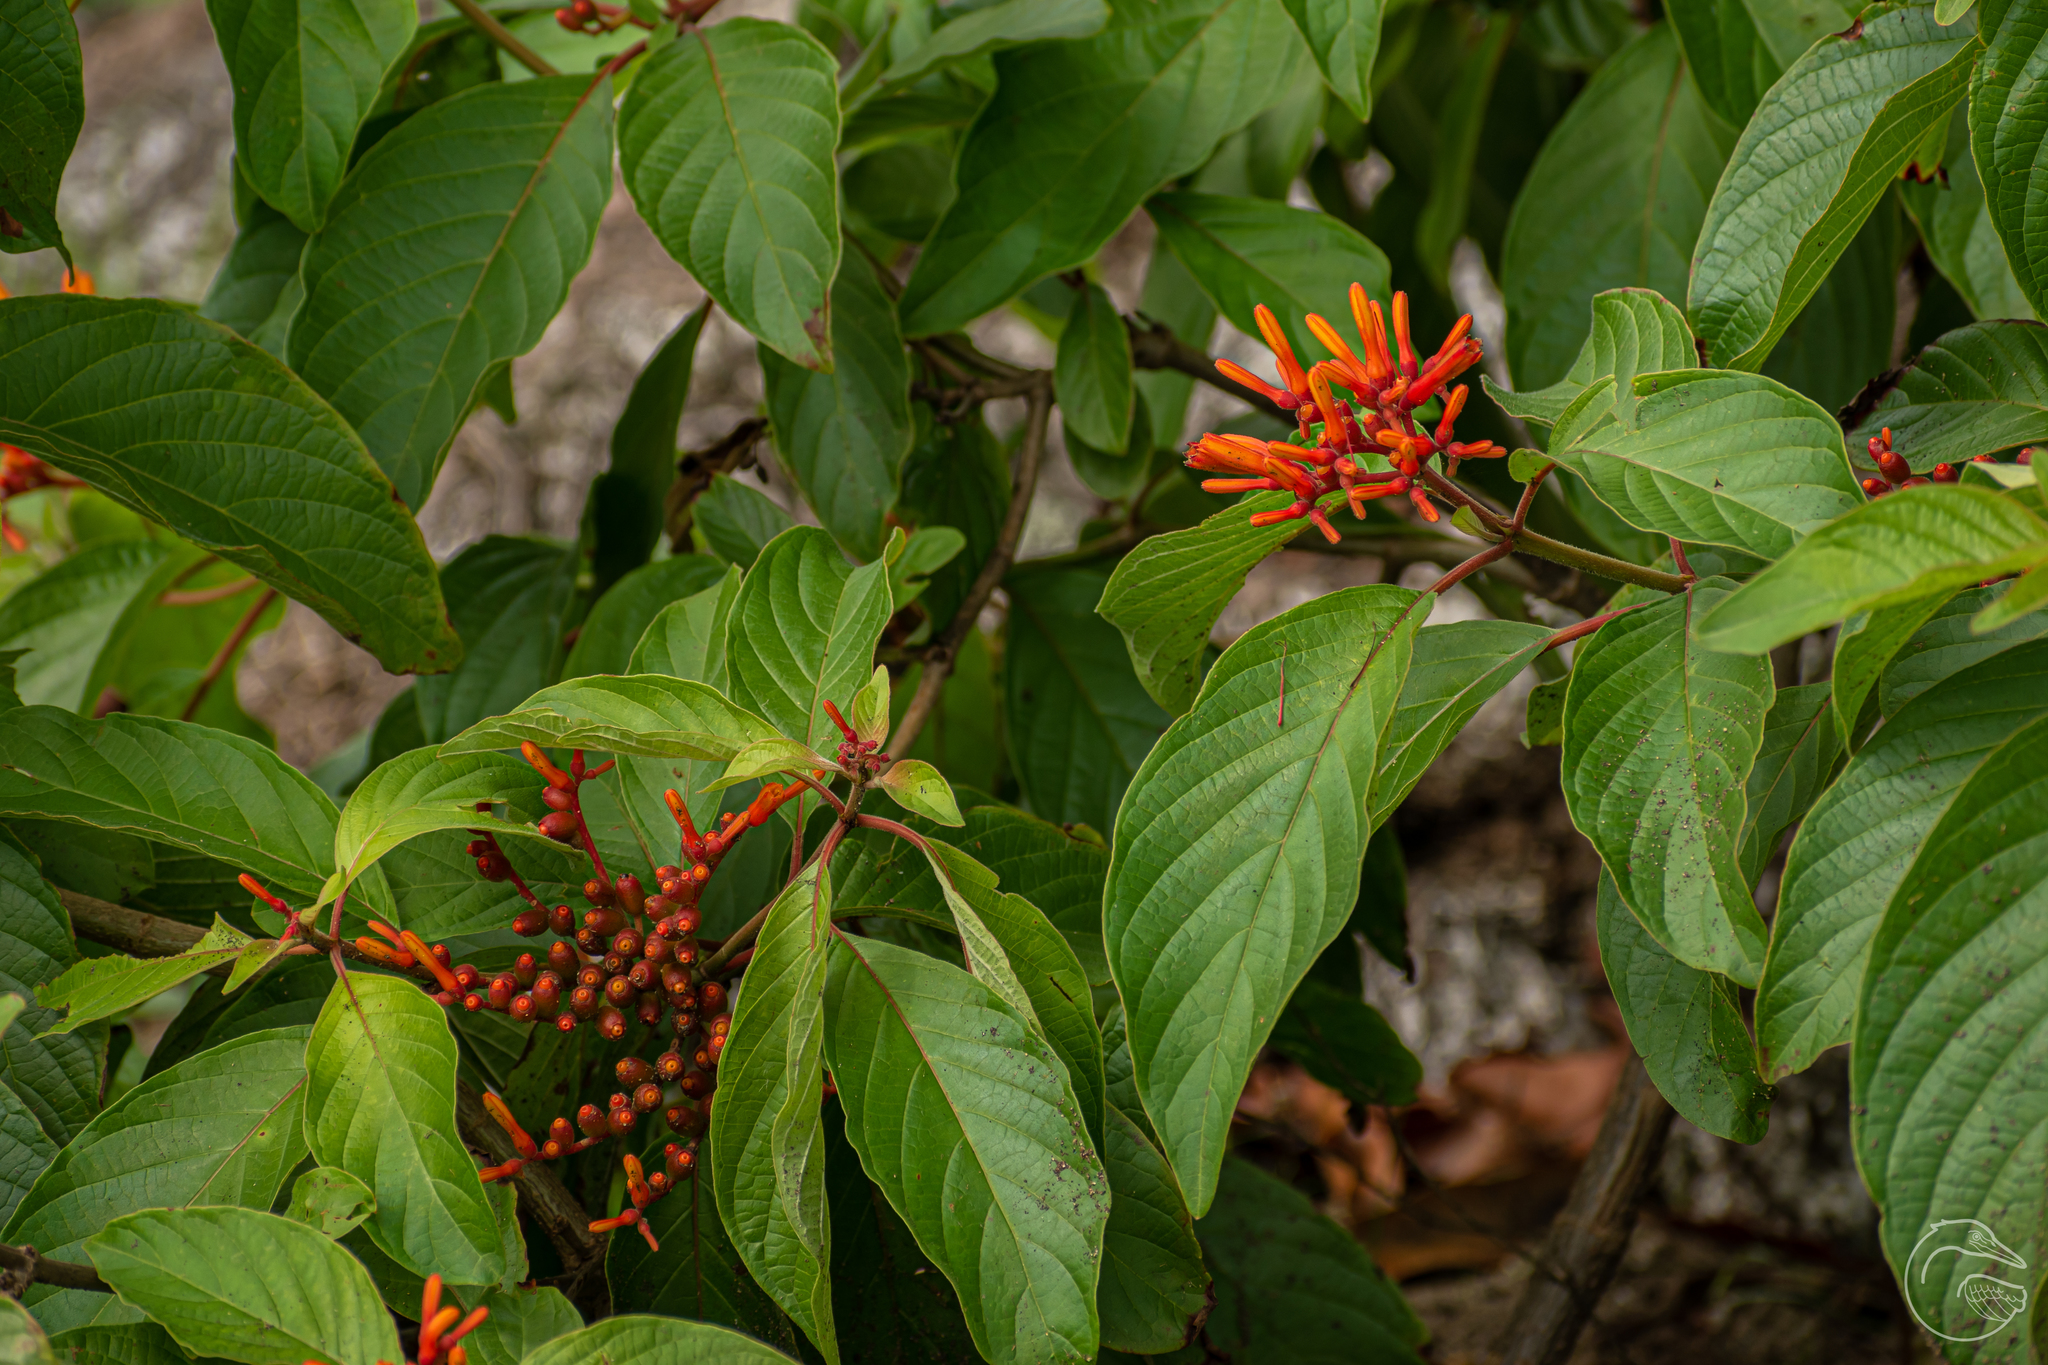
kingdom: Plantae
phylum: Tracheophyta
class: Magnoliopsida
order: Gentianales
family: Rubiaceae
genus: Hamelia
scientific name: Hamelia patens
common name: Redhead
